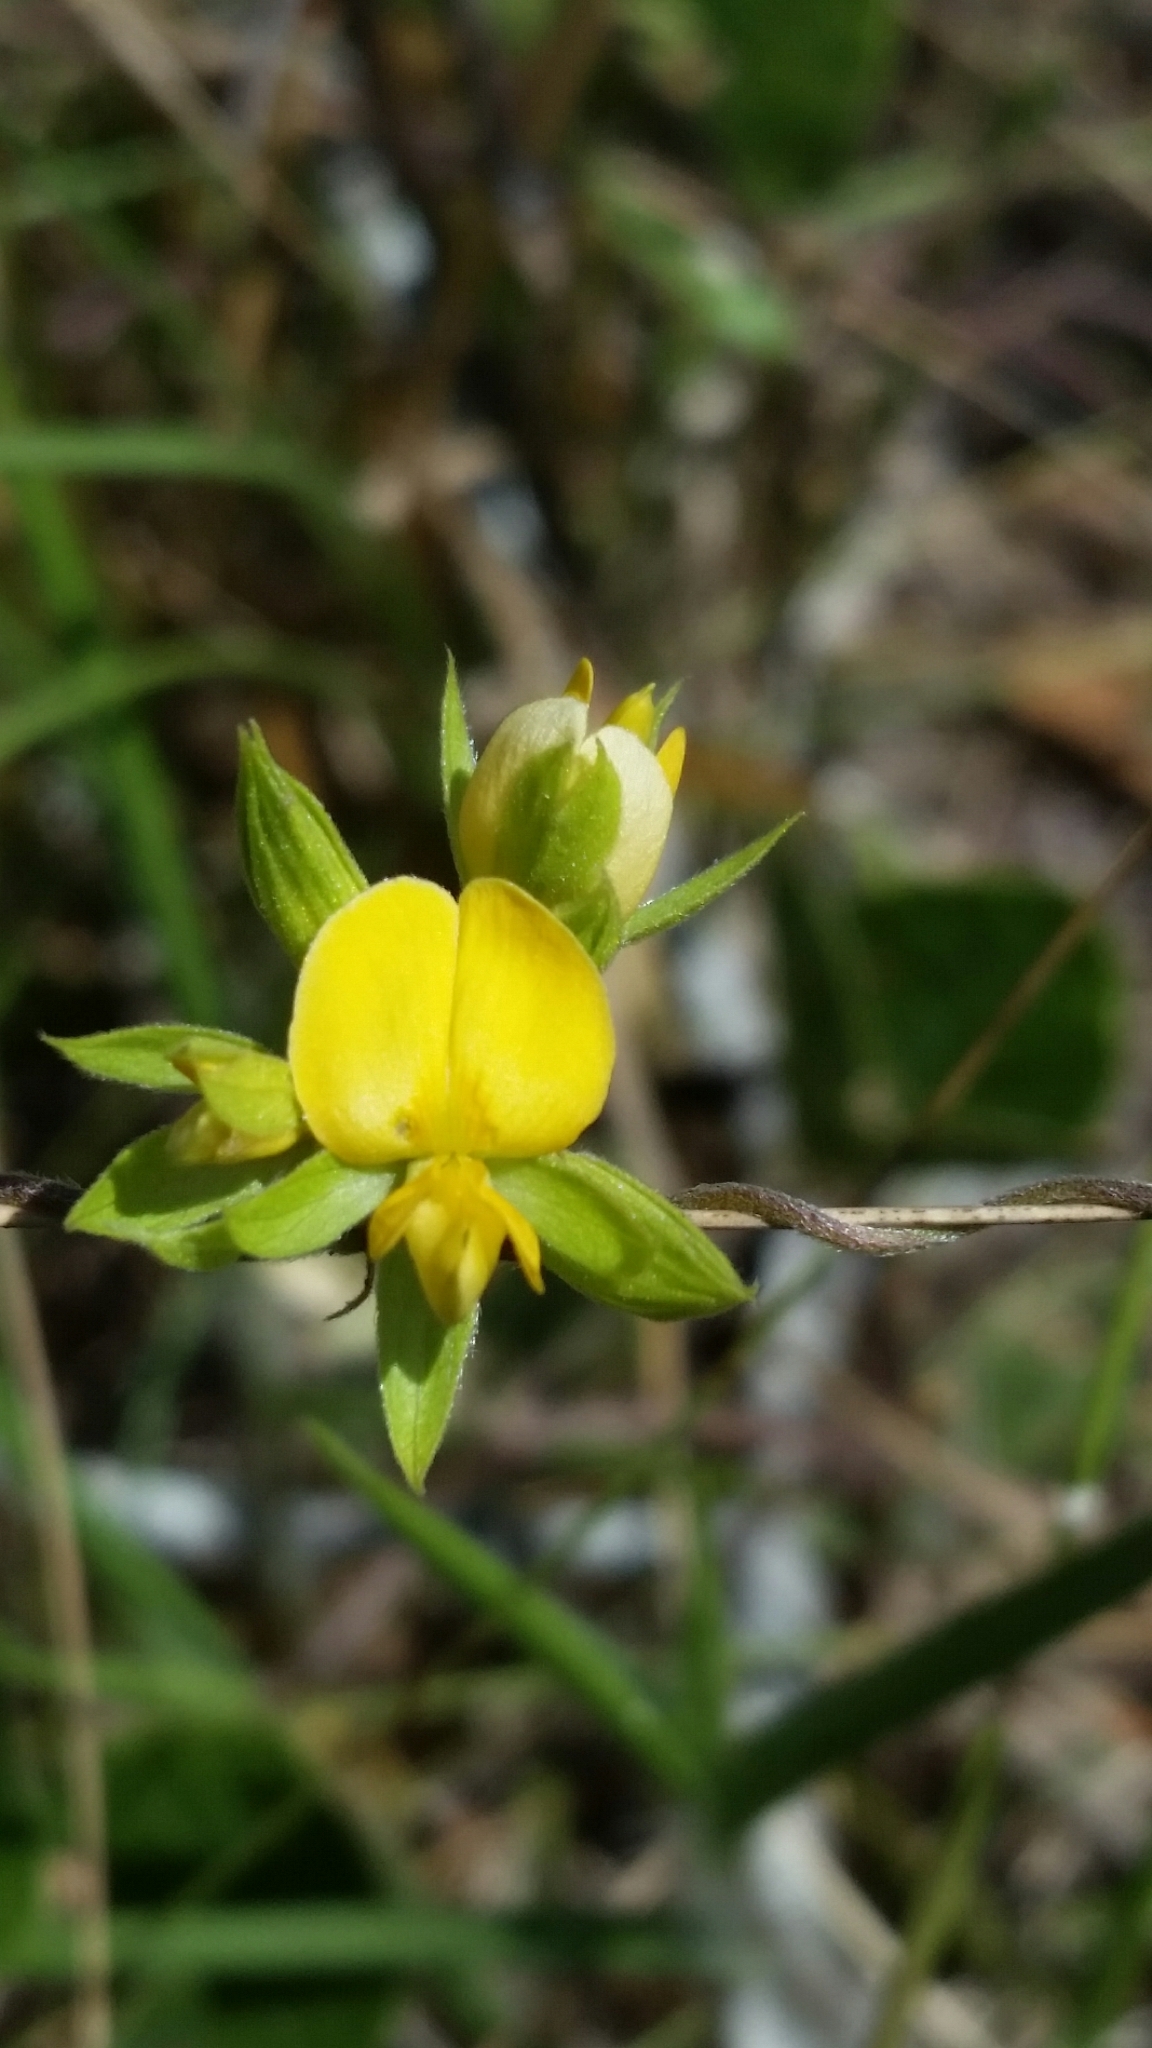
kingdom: Plantae
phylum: Tracheophyta
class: Magnoliopsida
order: Fabales
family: Fabaceae
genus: Rhynchosia
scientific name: Rhynchosia cinerea
